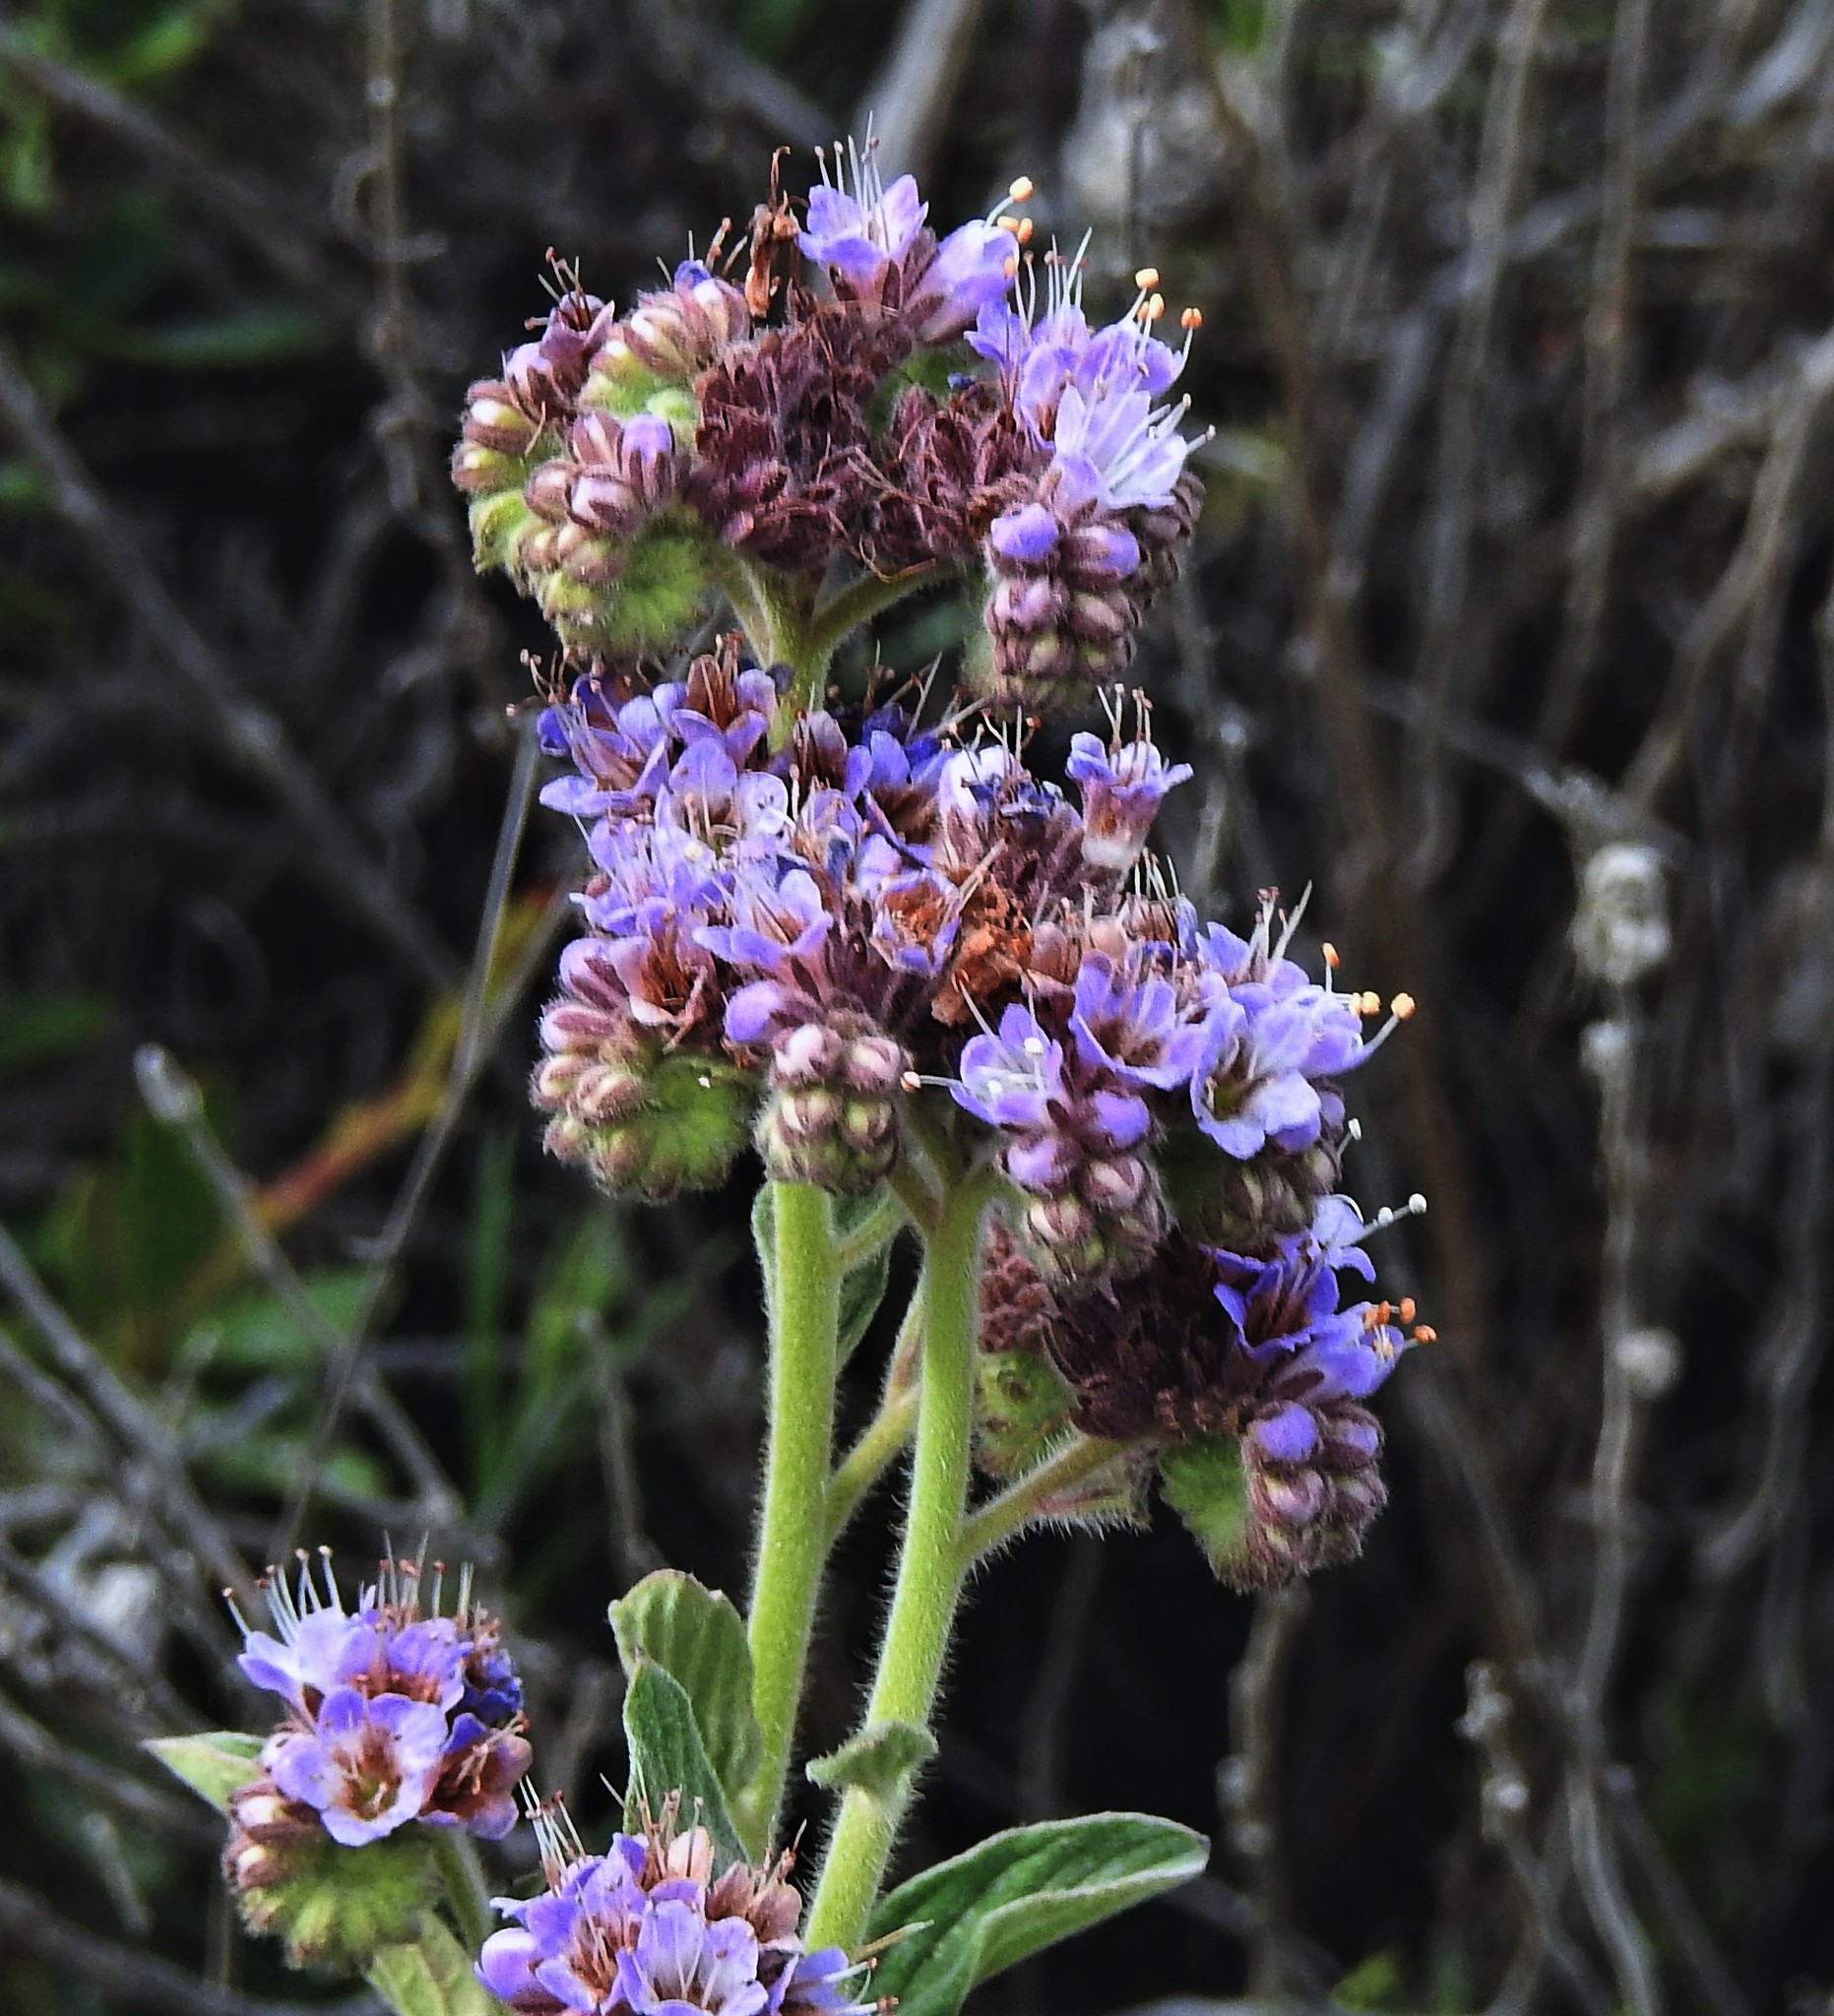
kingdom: Plantae
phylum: Tracheophyta
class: Magnoliopsida
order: Boraginales
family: Hydrophyllaceae
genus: Phacelia
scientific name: Phacelia secunda
